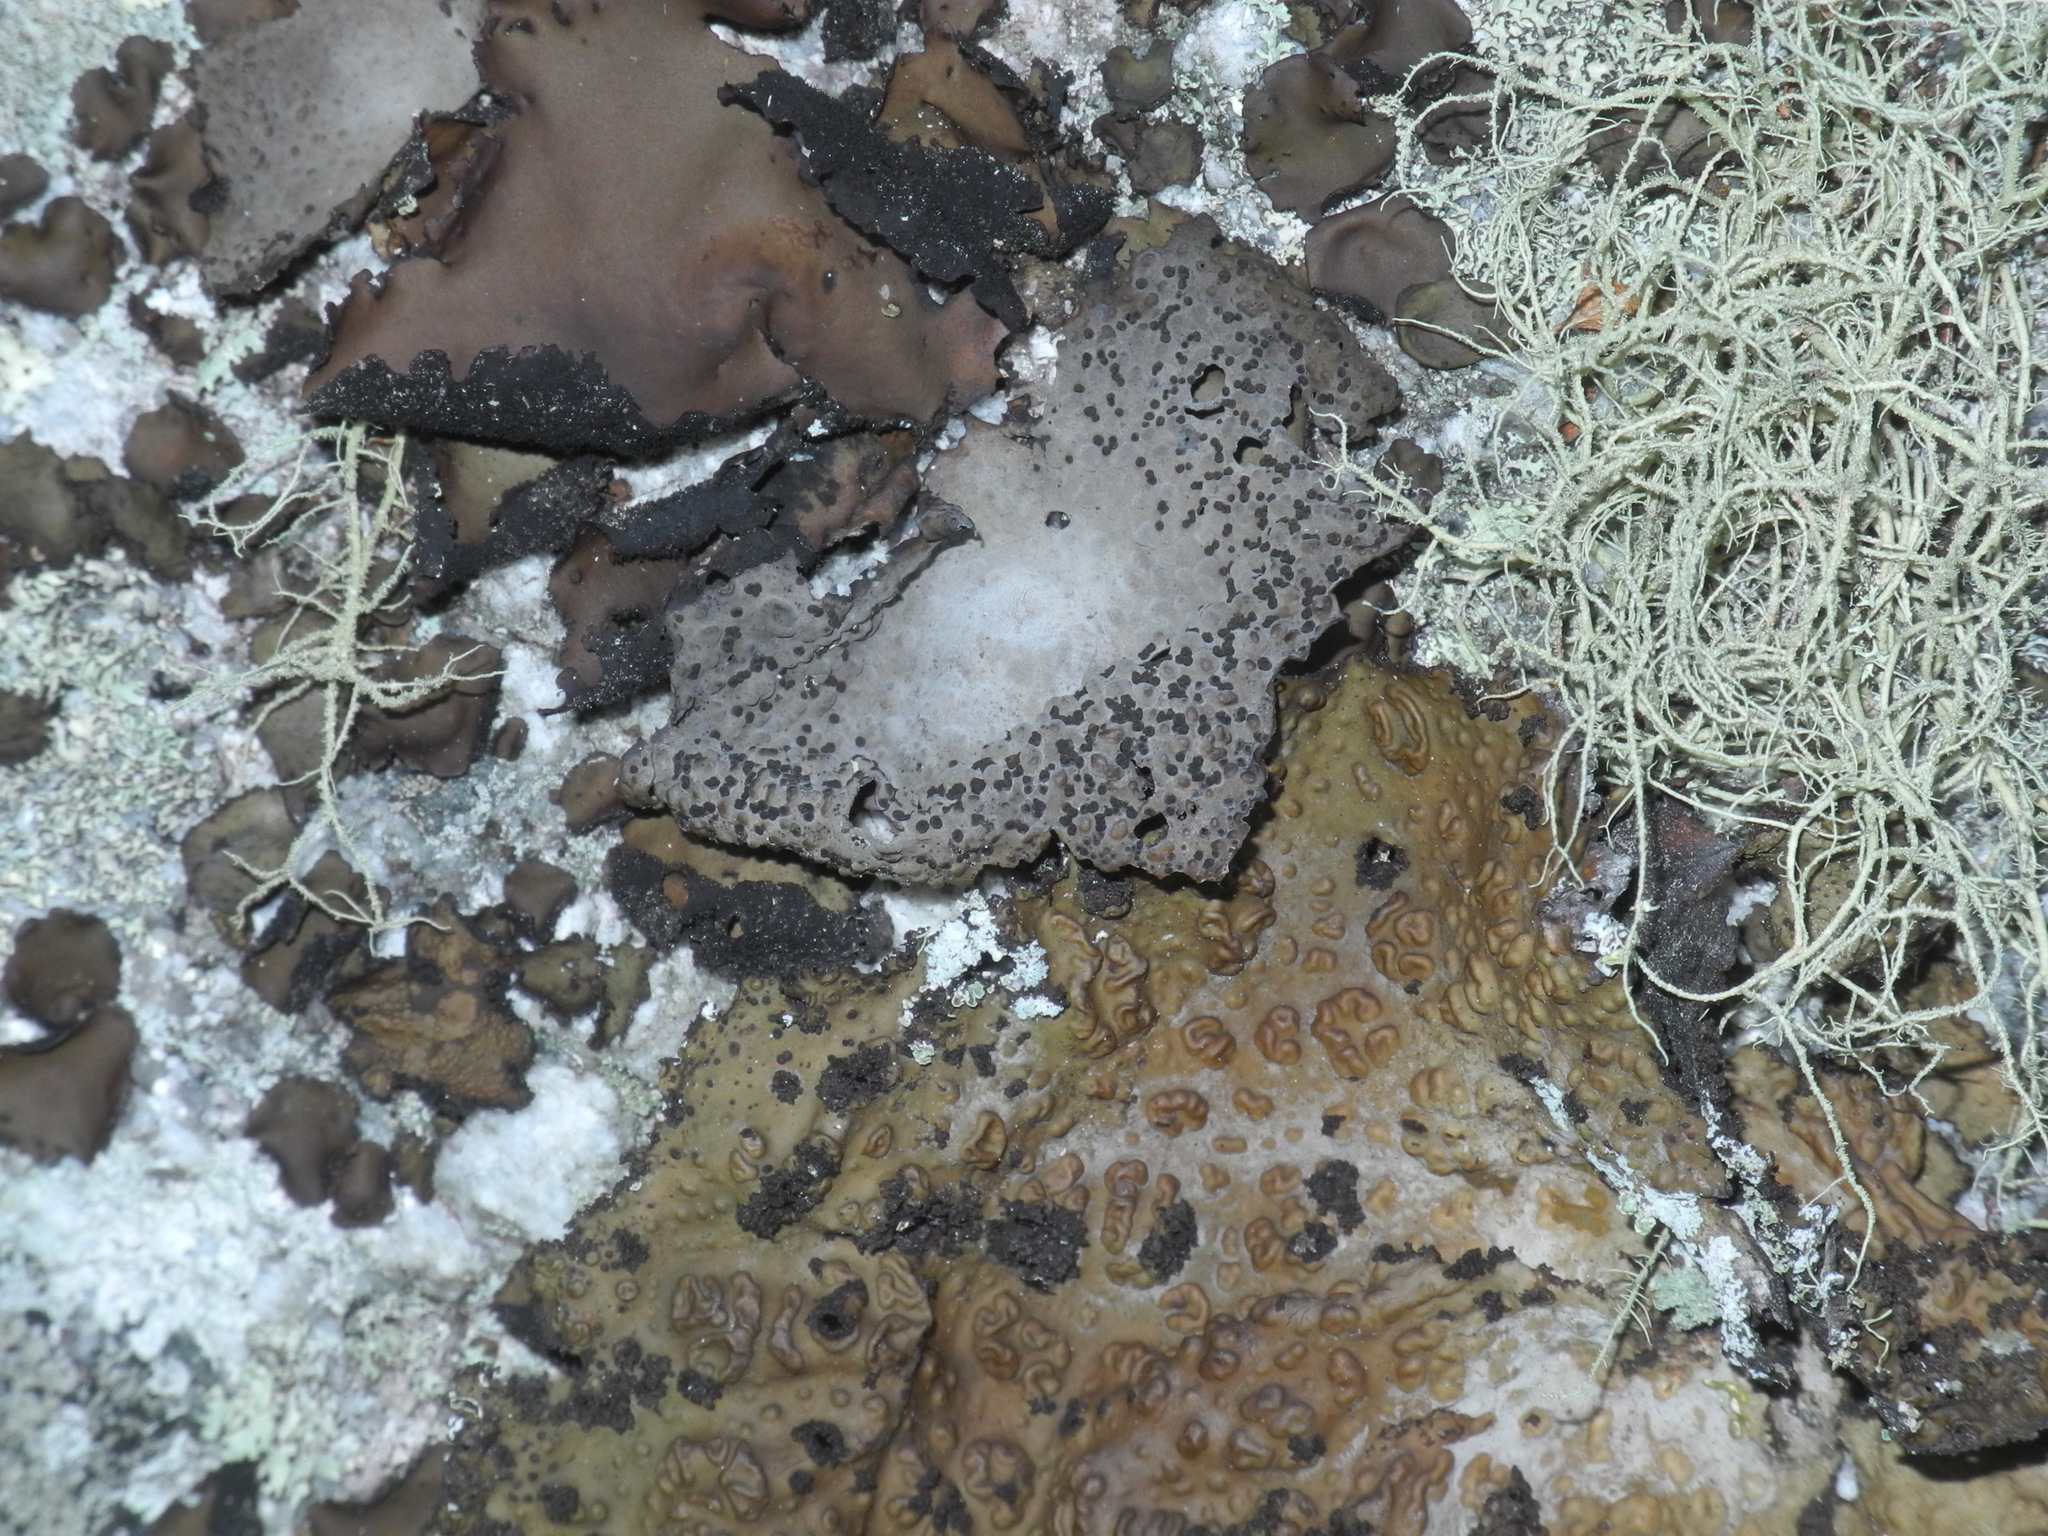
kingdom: Fungi
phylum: Ascomycota
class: Lecanoromycetes
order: Umbilicariales
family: Umbilicariaceae
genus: Lasallia
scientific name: Lasallia papulosa
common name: Common toadskin lichen
